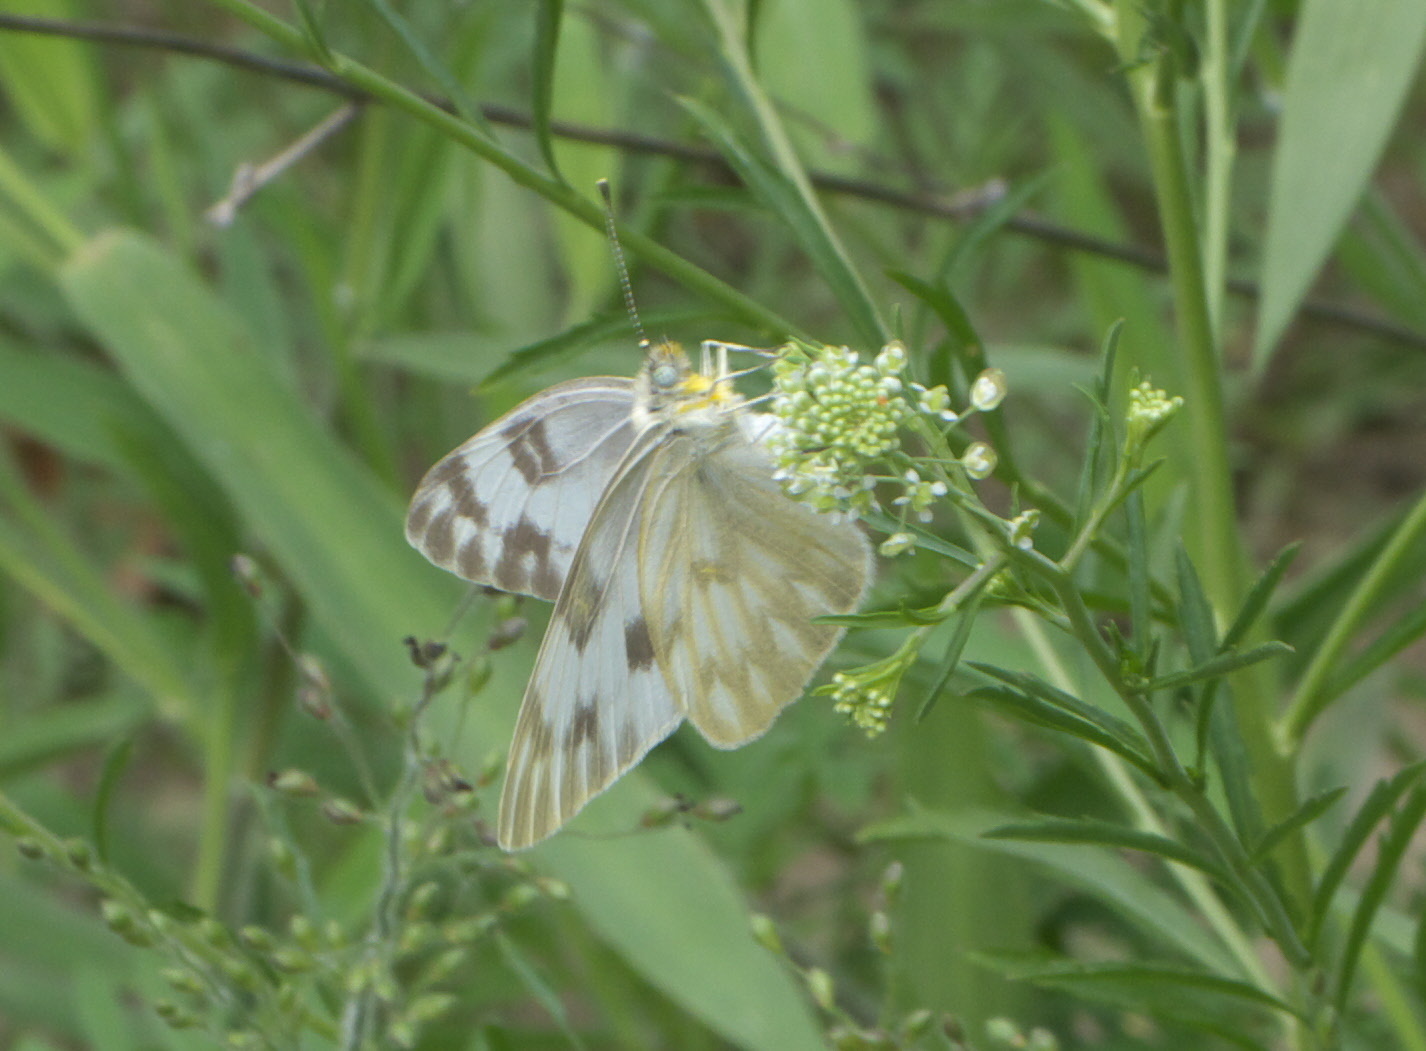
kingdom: Animalia
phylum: Arthropoda
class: Insecta
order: Lepidoptera
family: Pieridae
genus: Pontia
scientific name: Pontia protodice
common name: Checkered white
